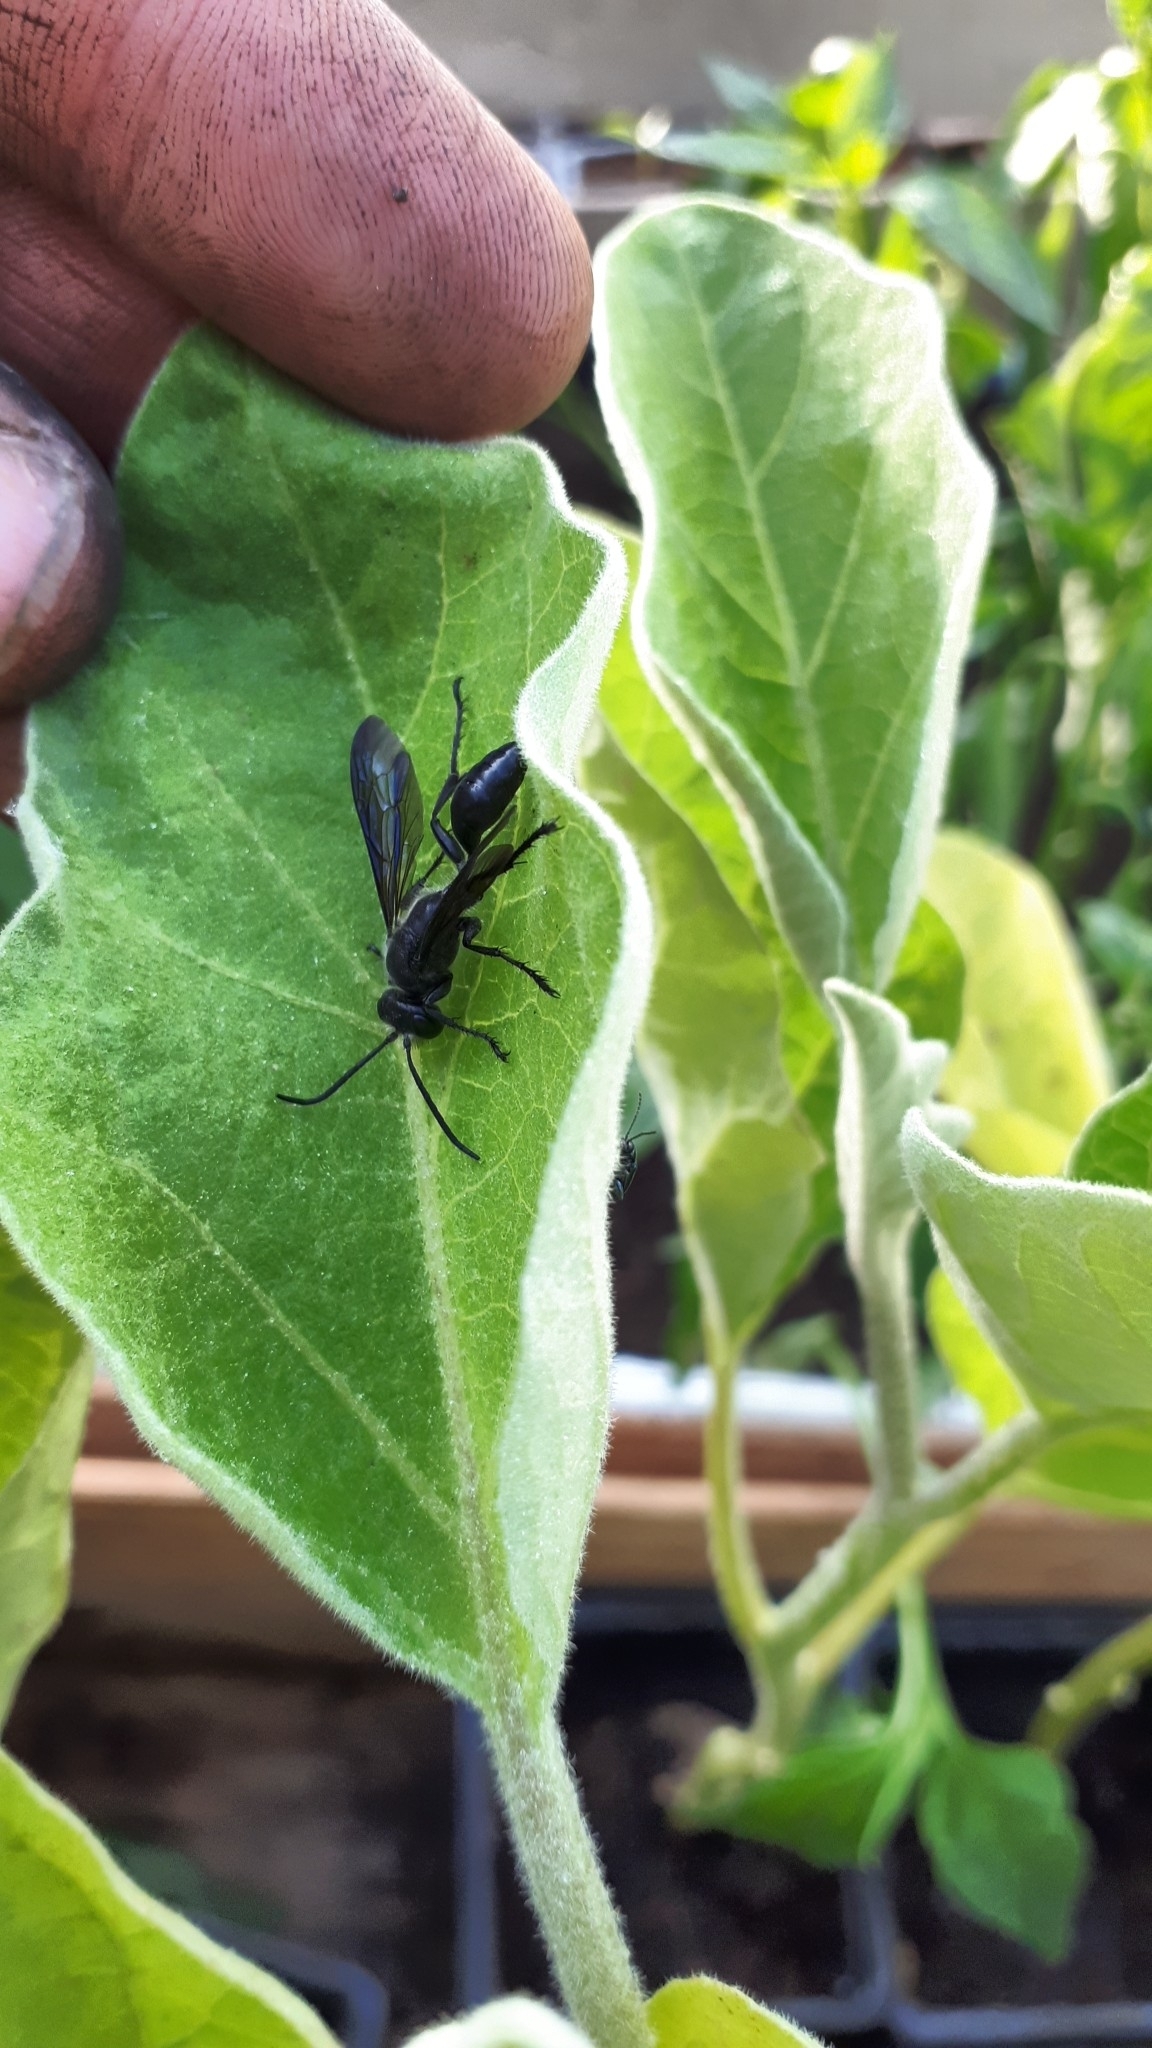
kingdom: Animalia
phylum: Arthropoda
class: Insecta
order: Hymenoptera
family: Sphecidae
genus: Isodontia
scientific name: Isodontia mexicana
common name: Mud dauber
